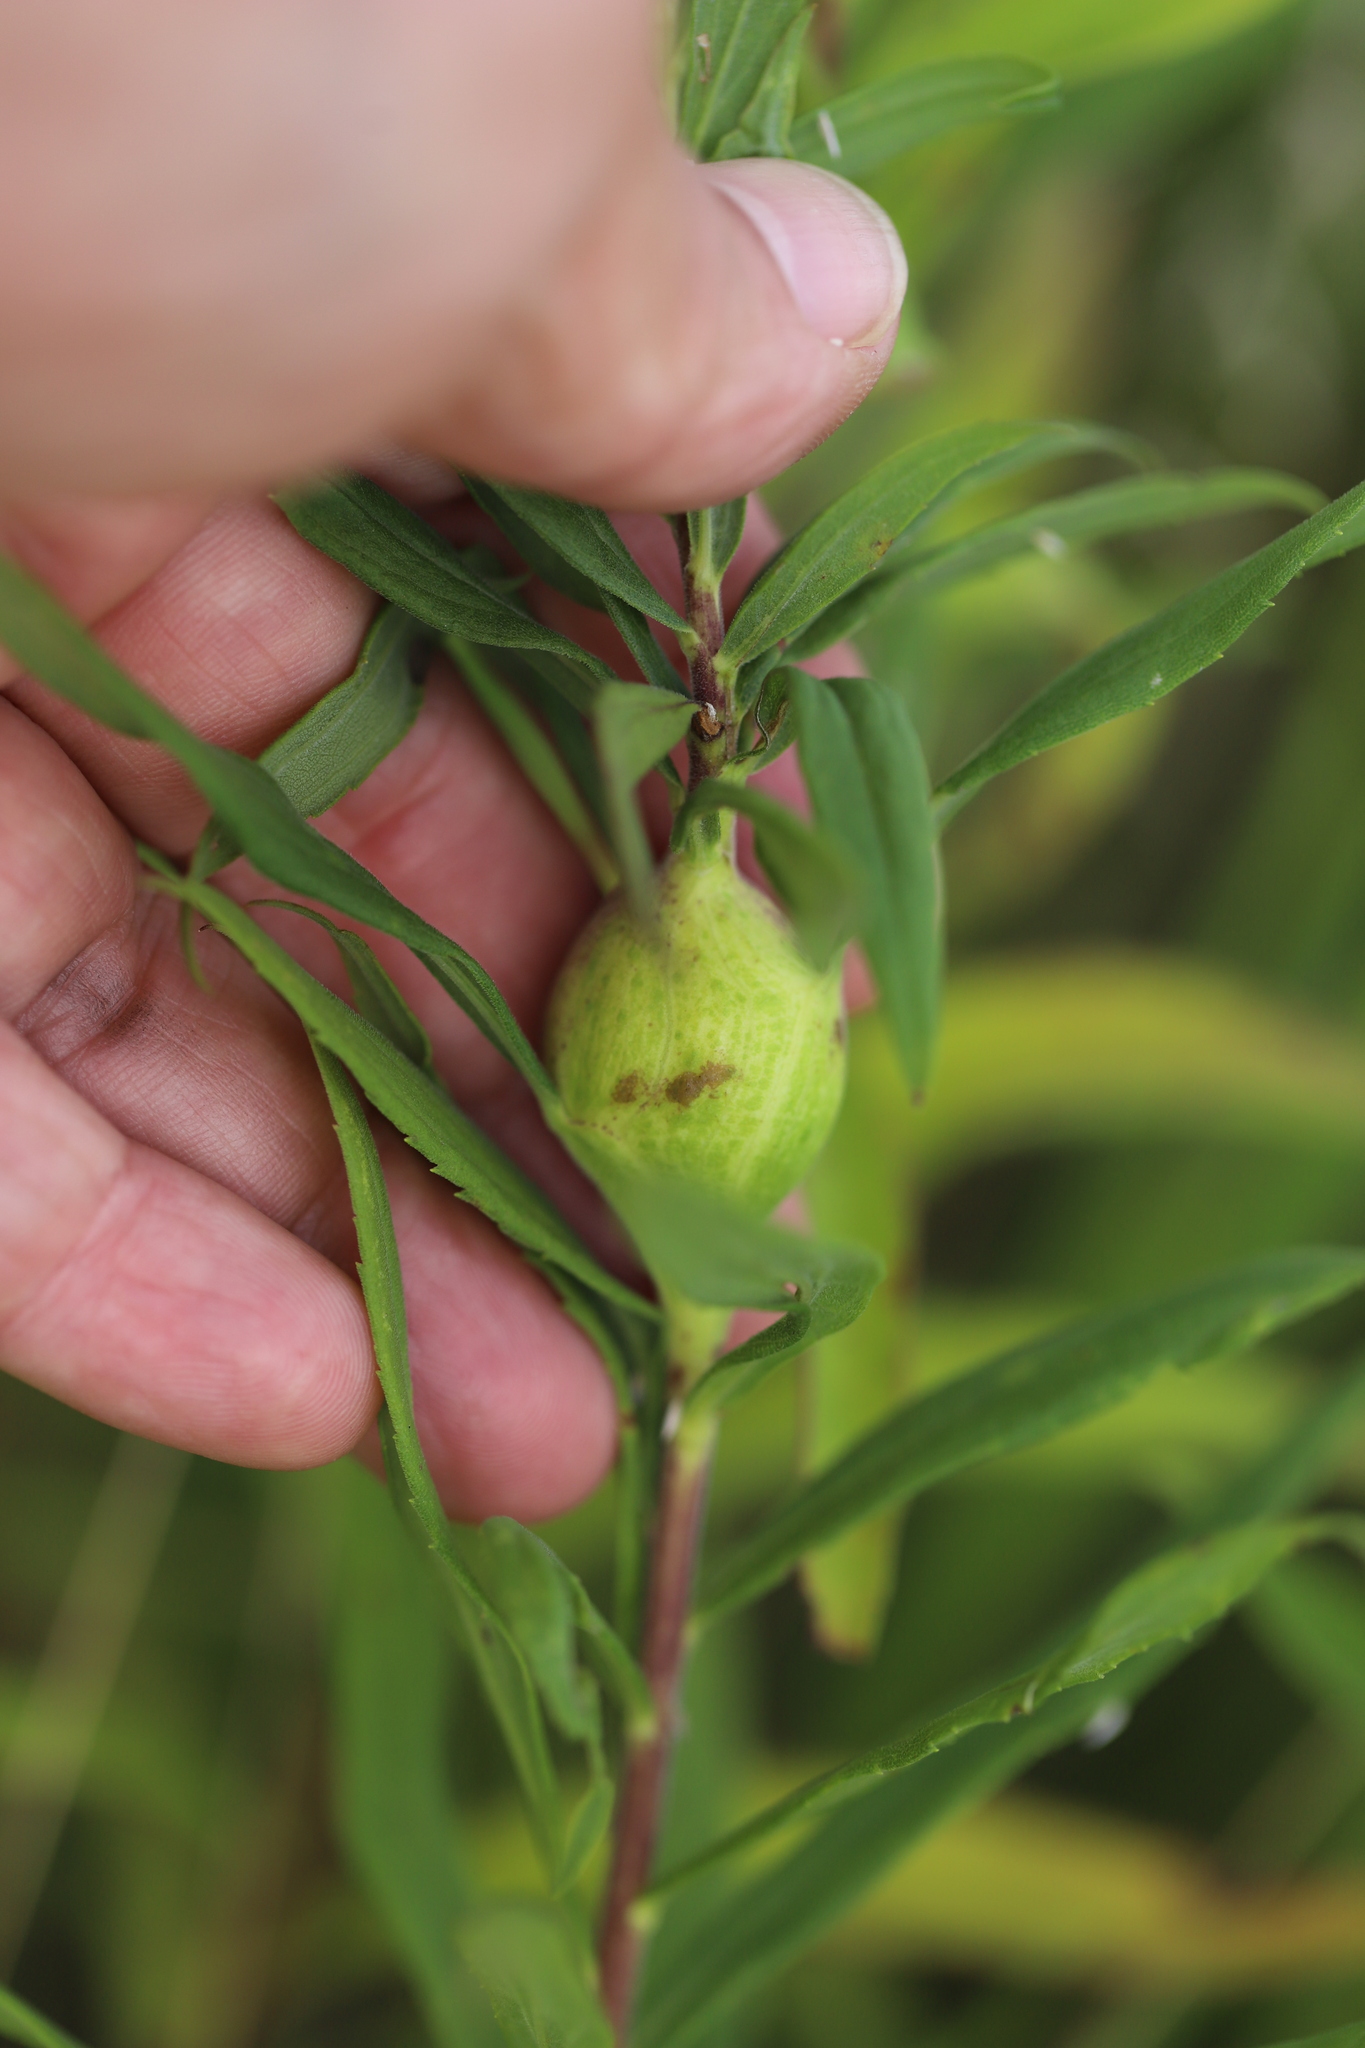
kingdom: Animalia
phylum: Arthropoda
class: Insecta
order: Diptera
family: Tephritidae
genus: Eurosta
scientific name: Eurosta solidaginis
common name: Goldenrod gall fly
